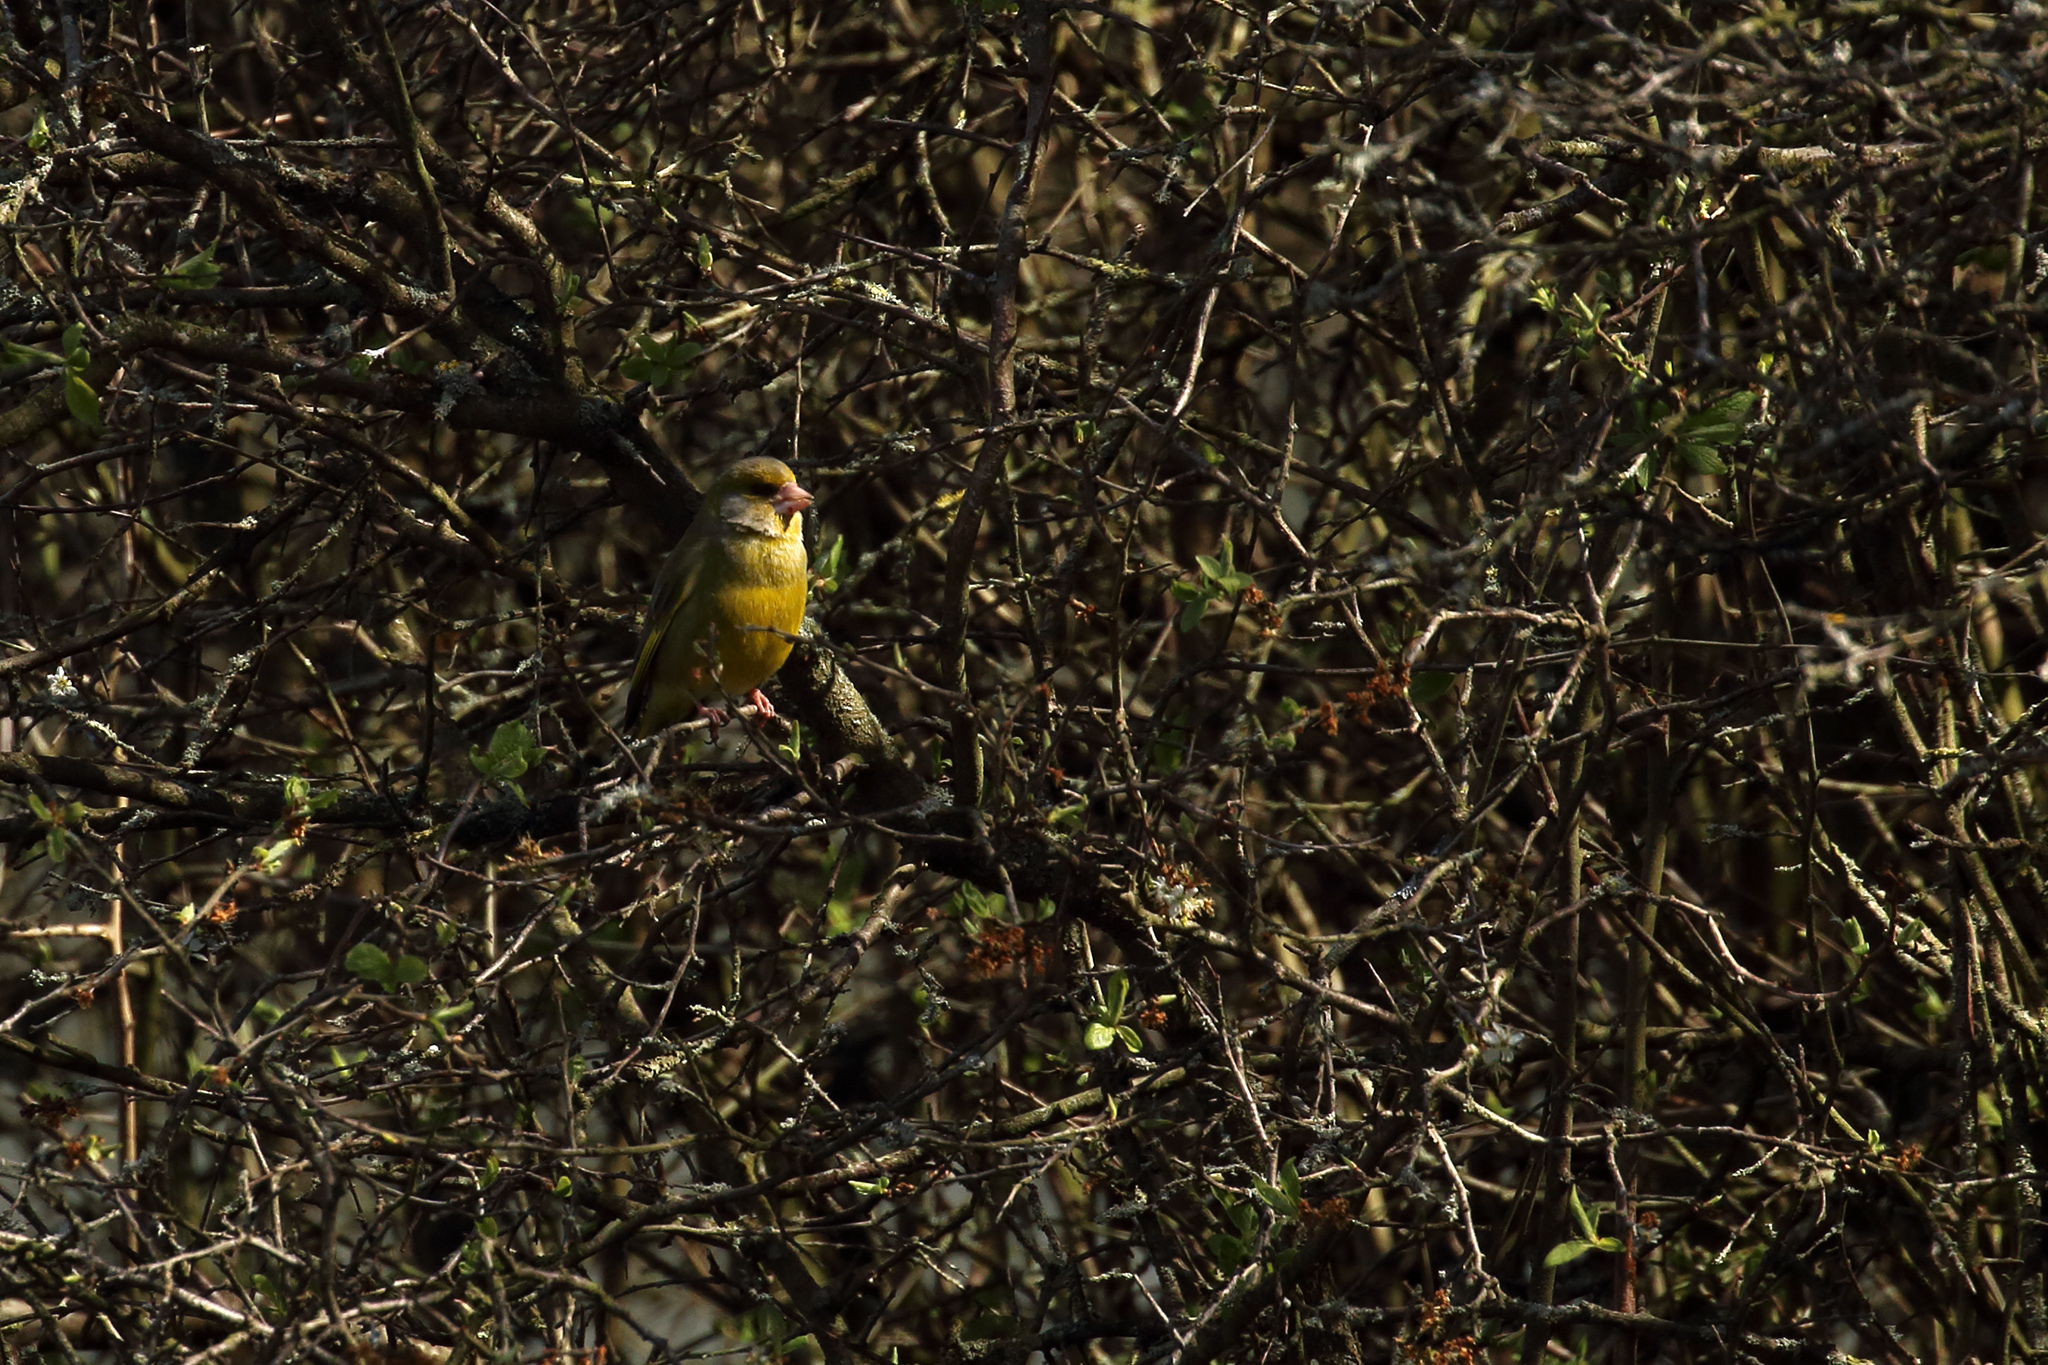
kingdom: Plantae
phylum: Tracheophyta
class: Liliopsida
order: Poales
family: Poaceae
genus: Chloris
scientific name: Chloris chloris
